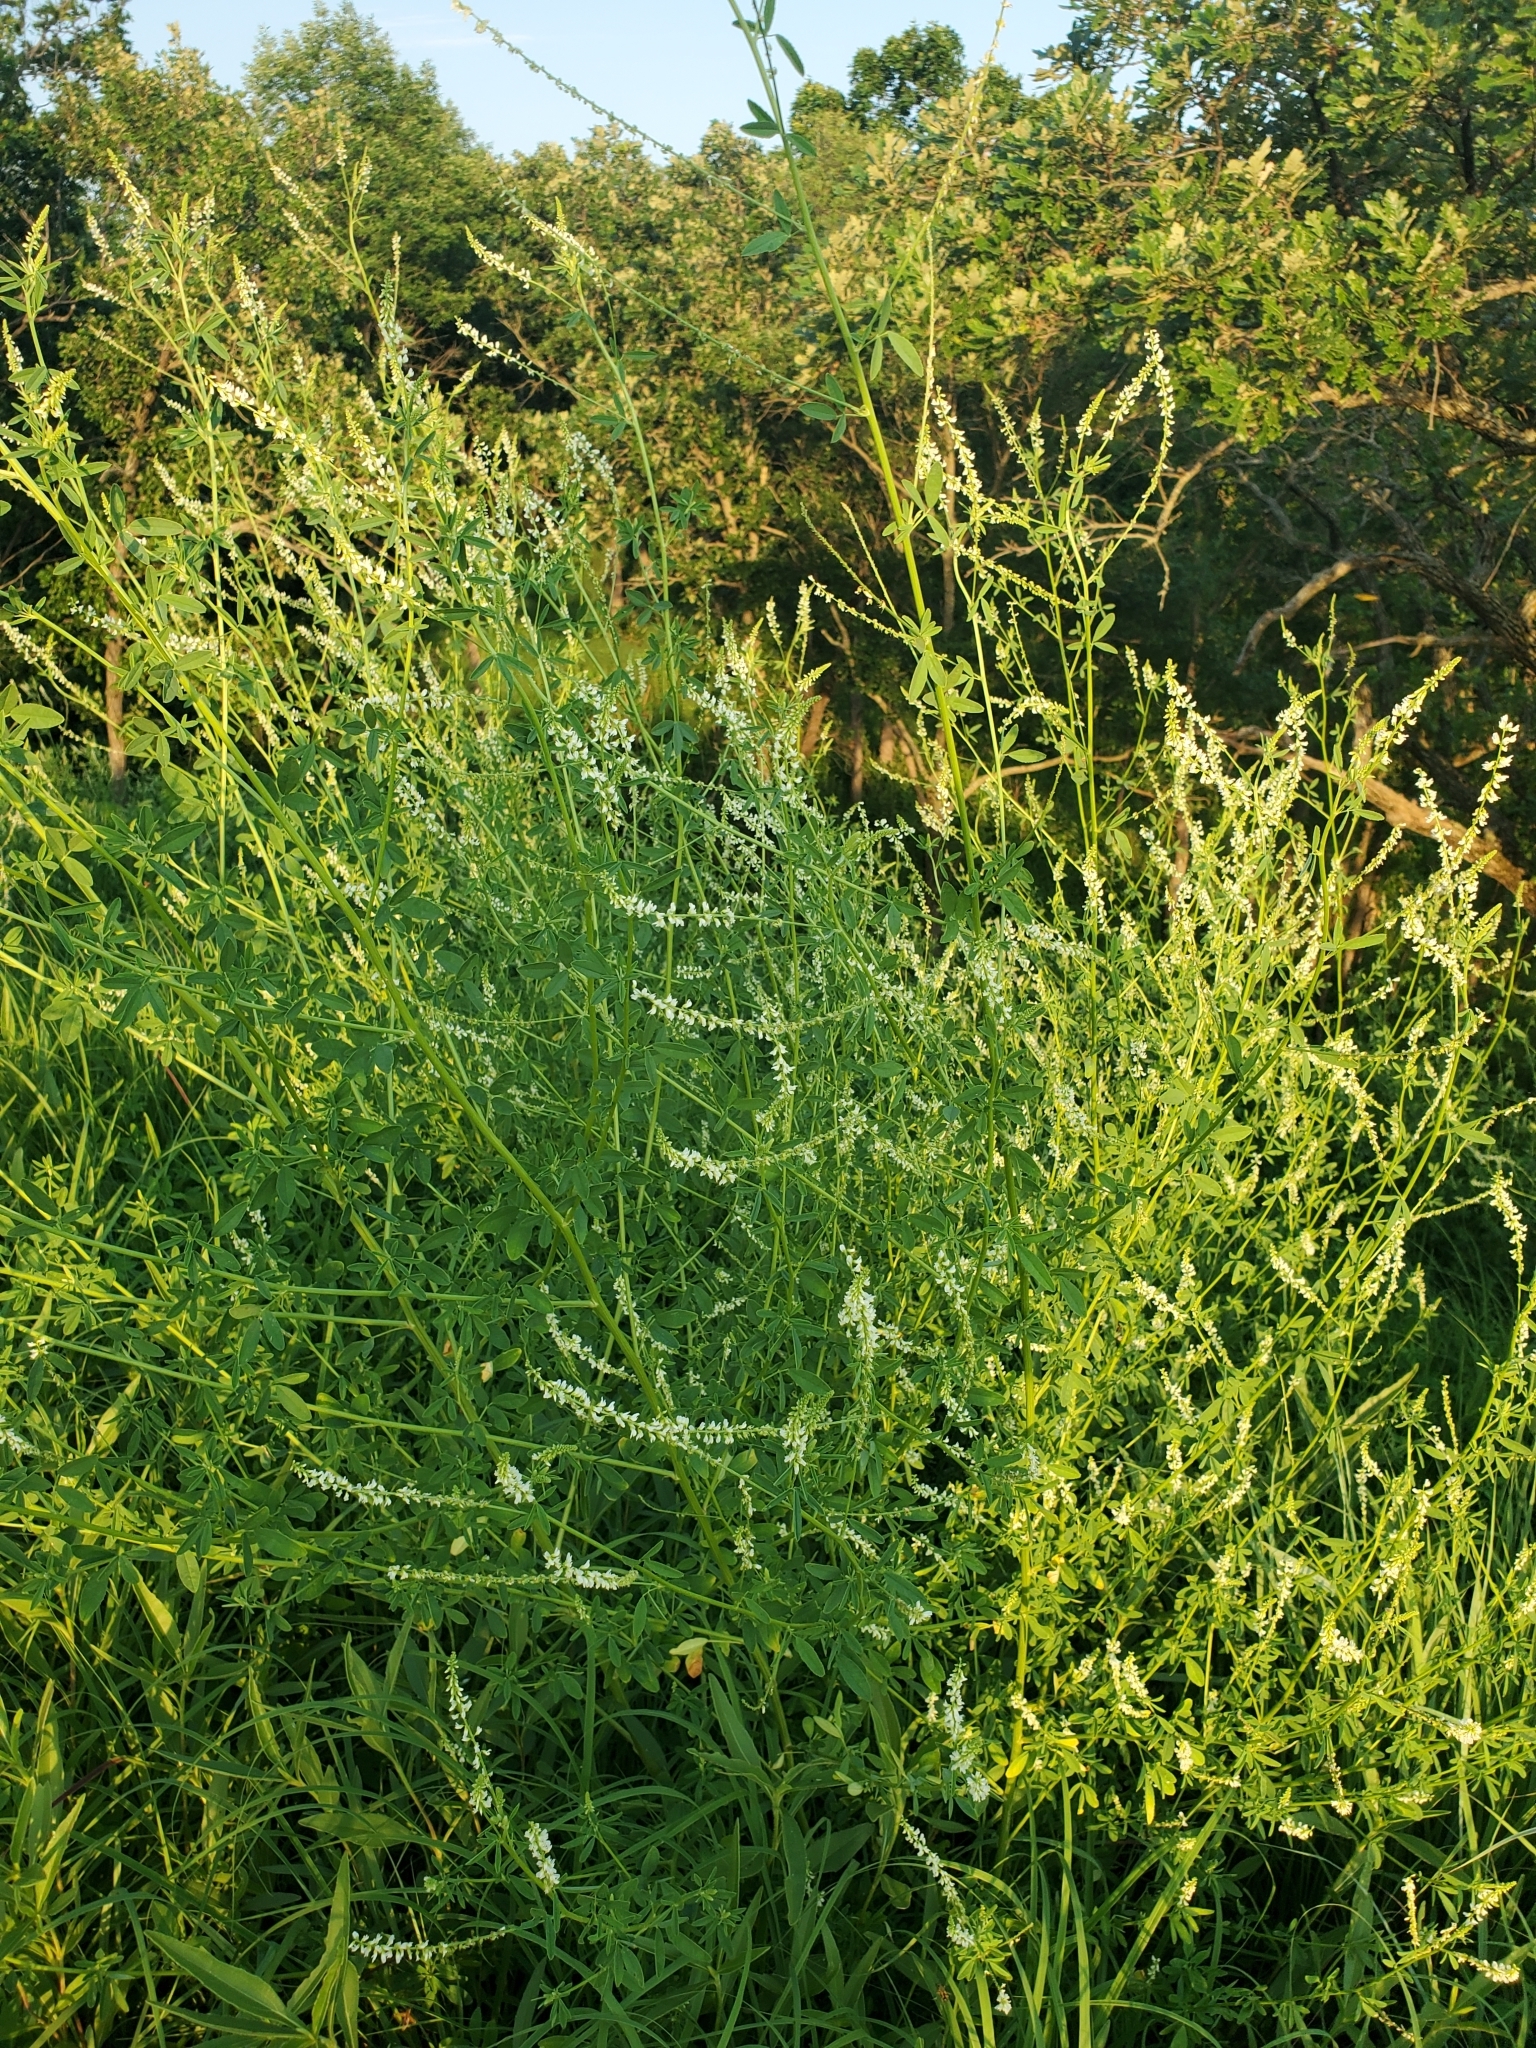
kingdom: Plantae
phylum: Tracheophyta
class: Magnoliopsida
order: Fabales
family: Fabaceae
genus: Melilotus
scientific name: Melilotus albus
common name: White melilot
